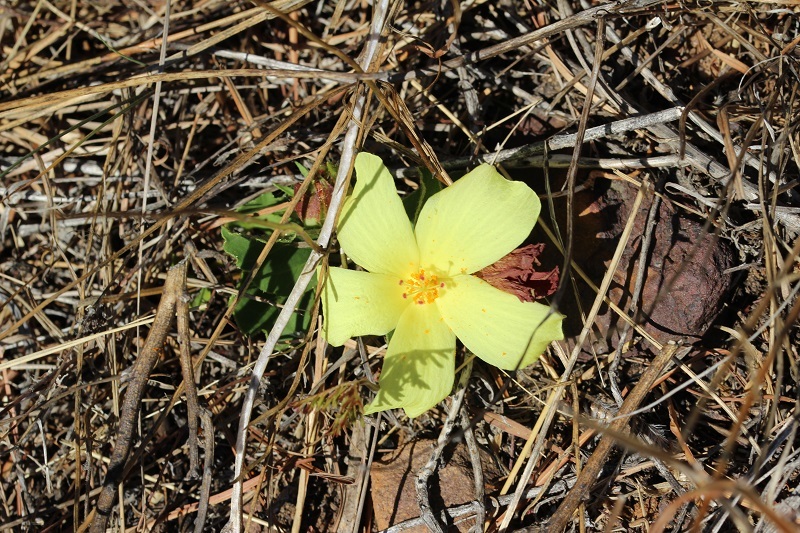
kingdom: Plantae
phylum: Tracheophyta
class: Magnoliopsida
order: Malvales
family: Malvaceae
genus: Hibiscus
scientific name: Hibiscus aethiopicus
